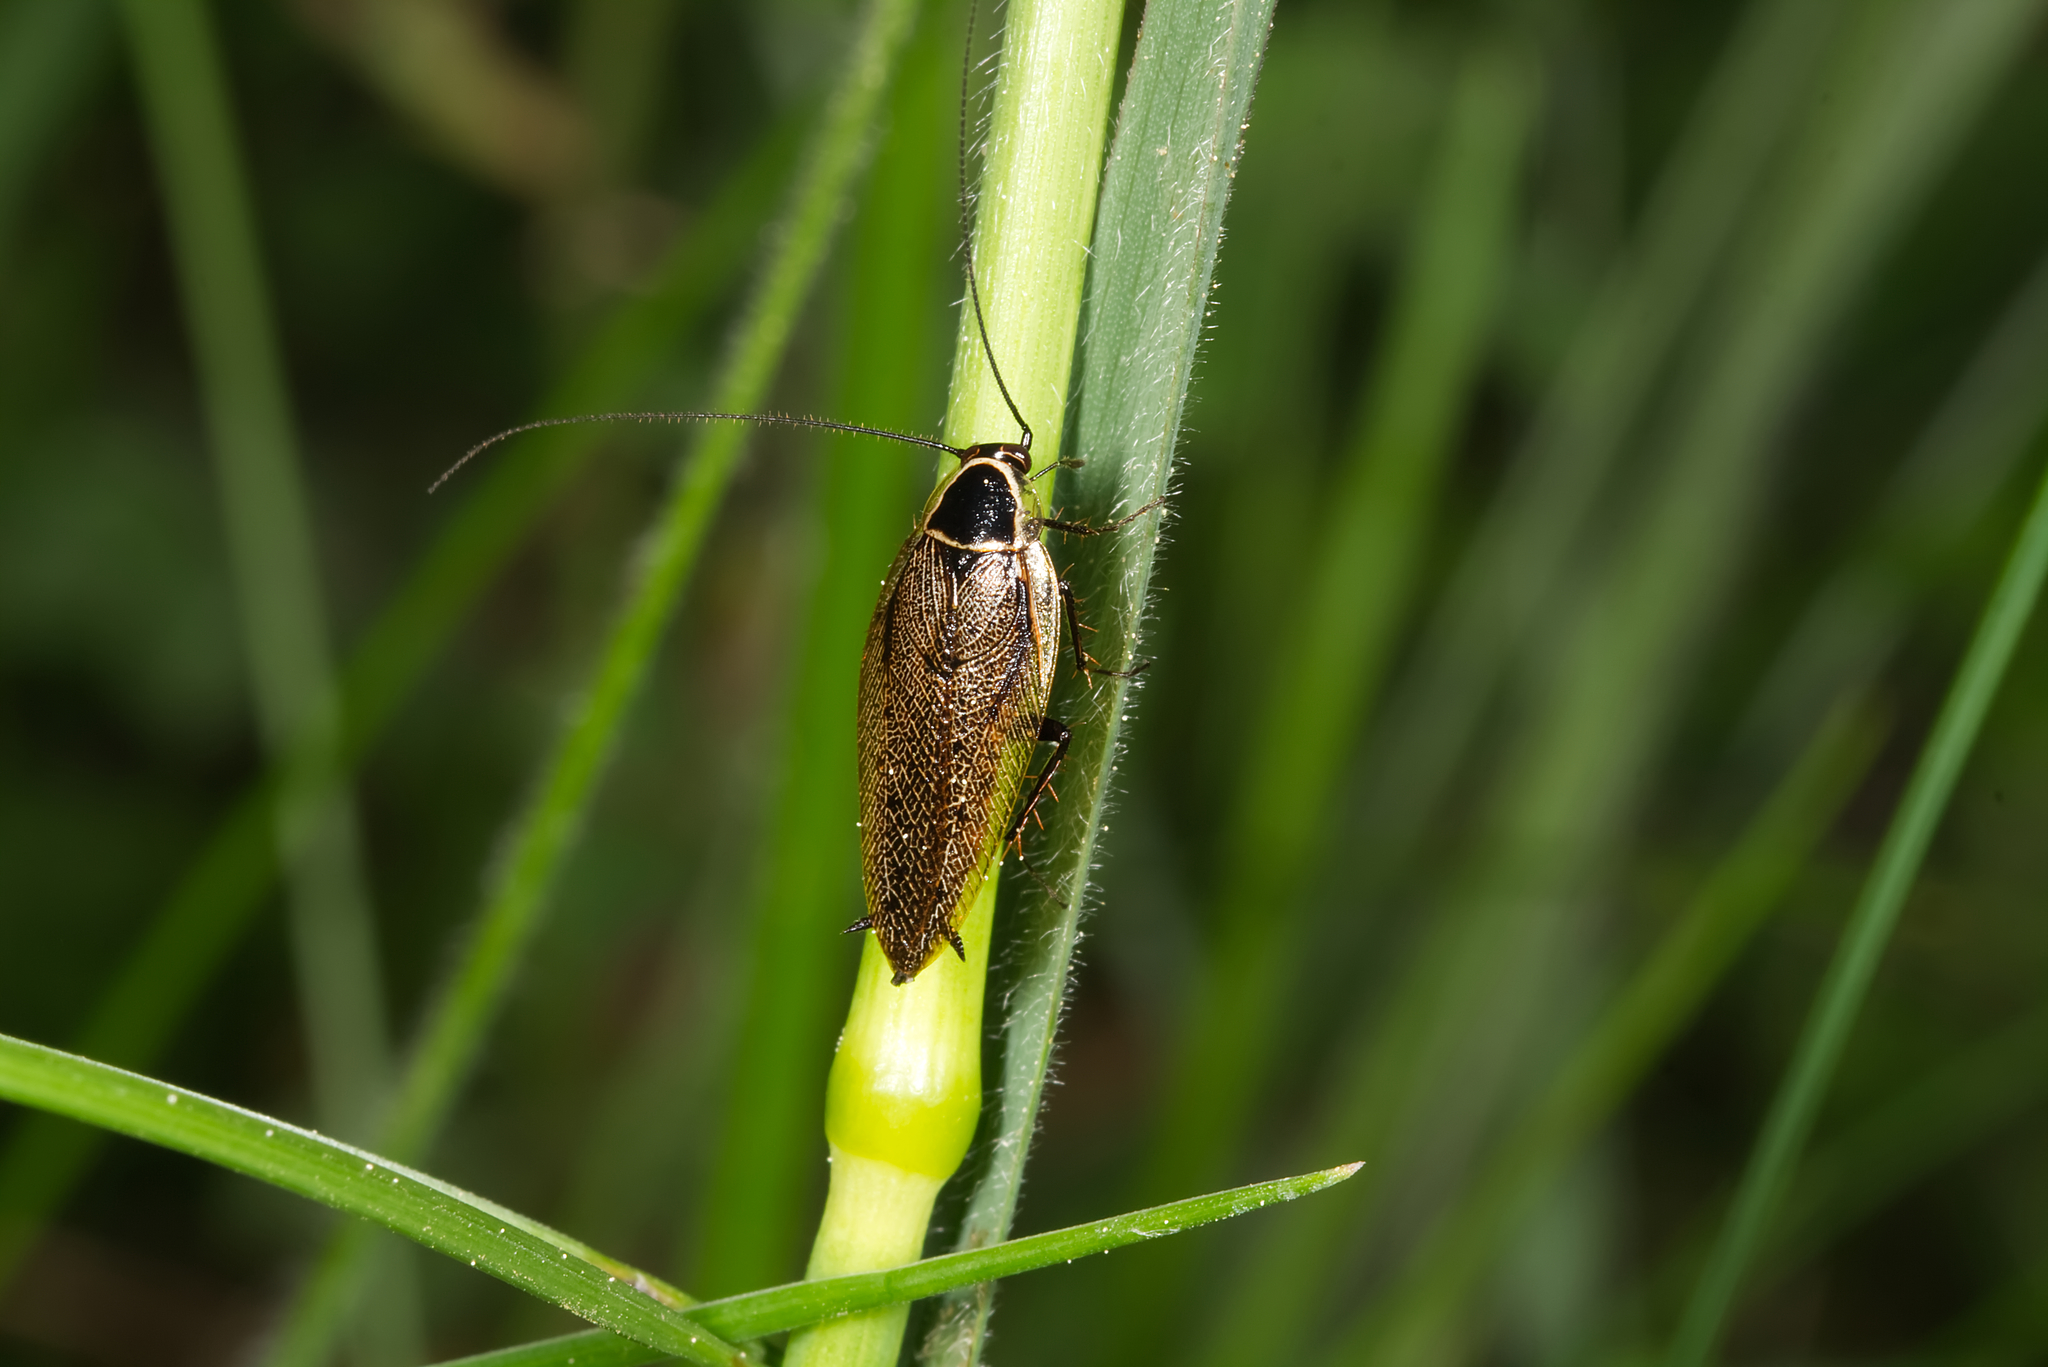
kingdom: Animalia
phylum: Arthropoda
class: Insecta
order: Blattodea
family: Ectobiidae
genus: Ectobius
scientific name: Ectobius sylvestris
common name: Forest cockroach
